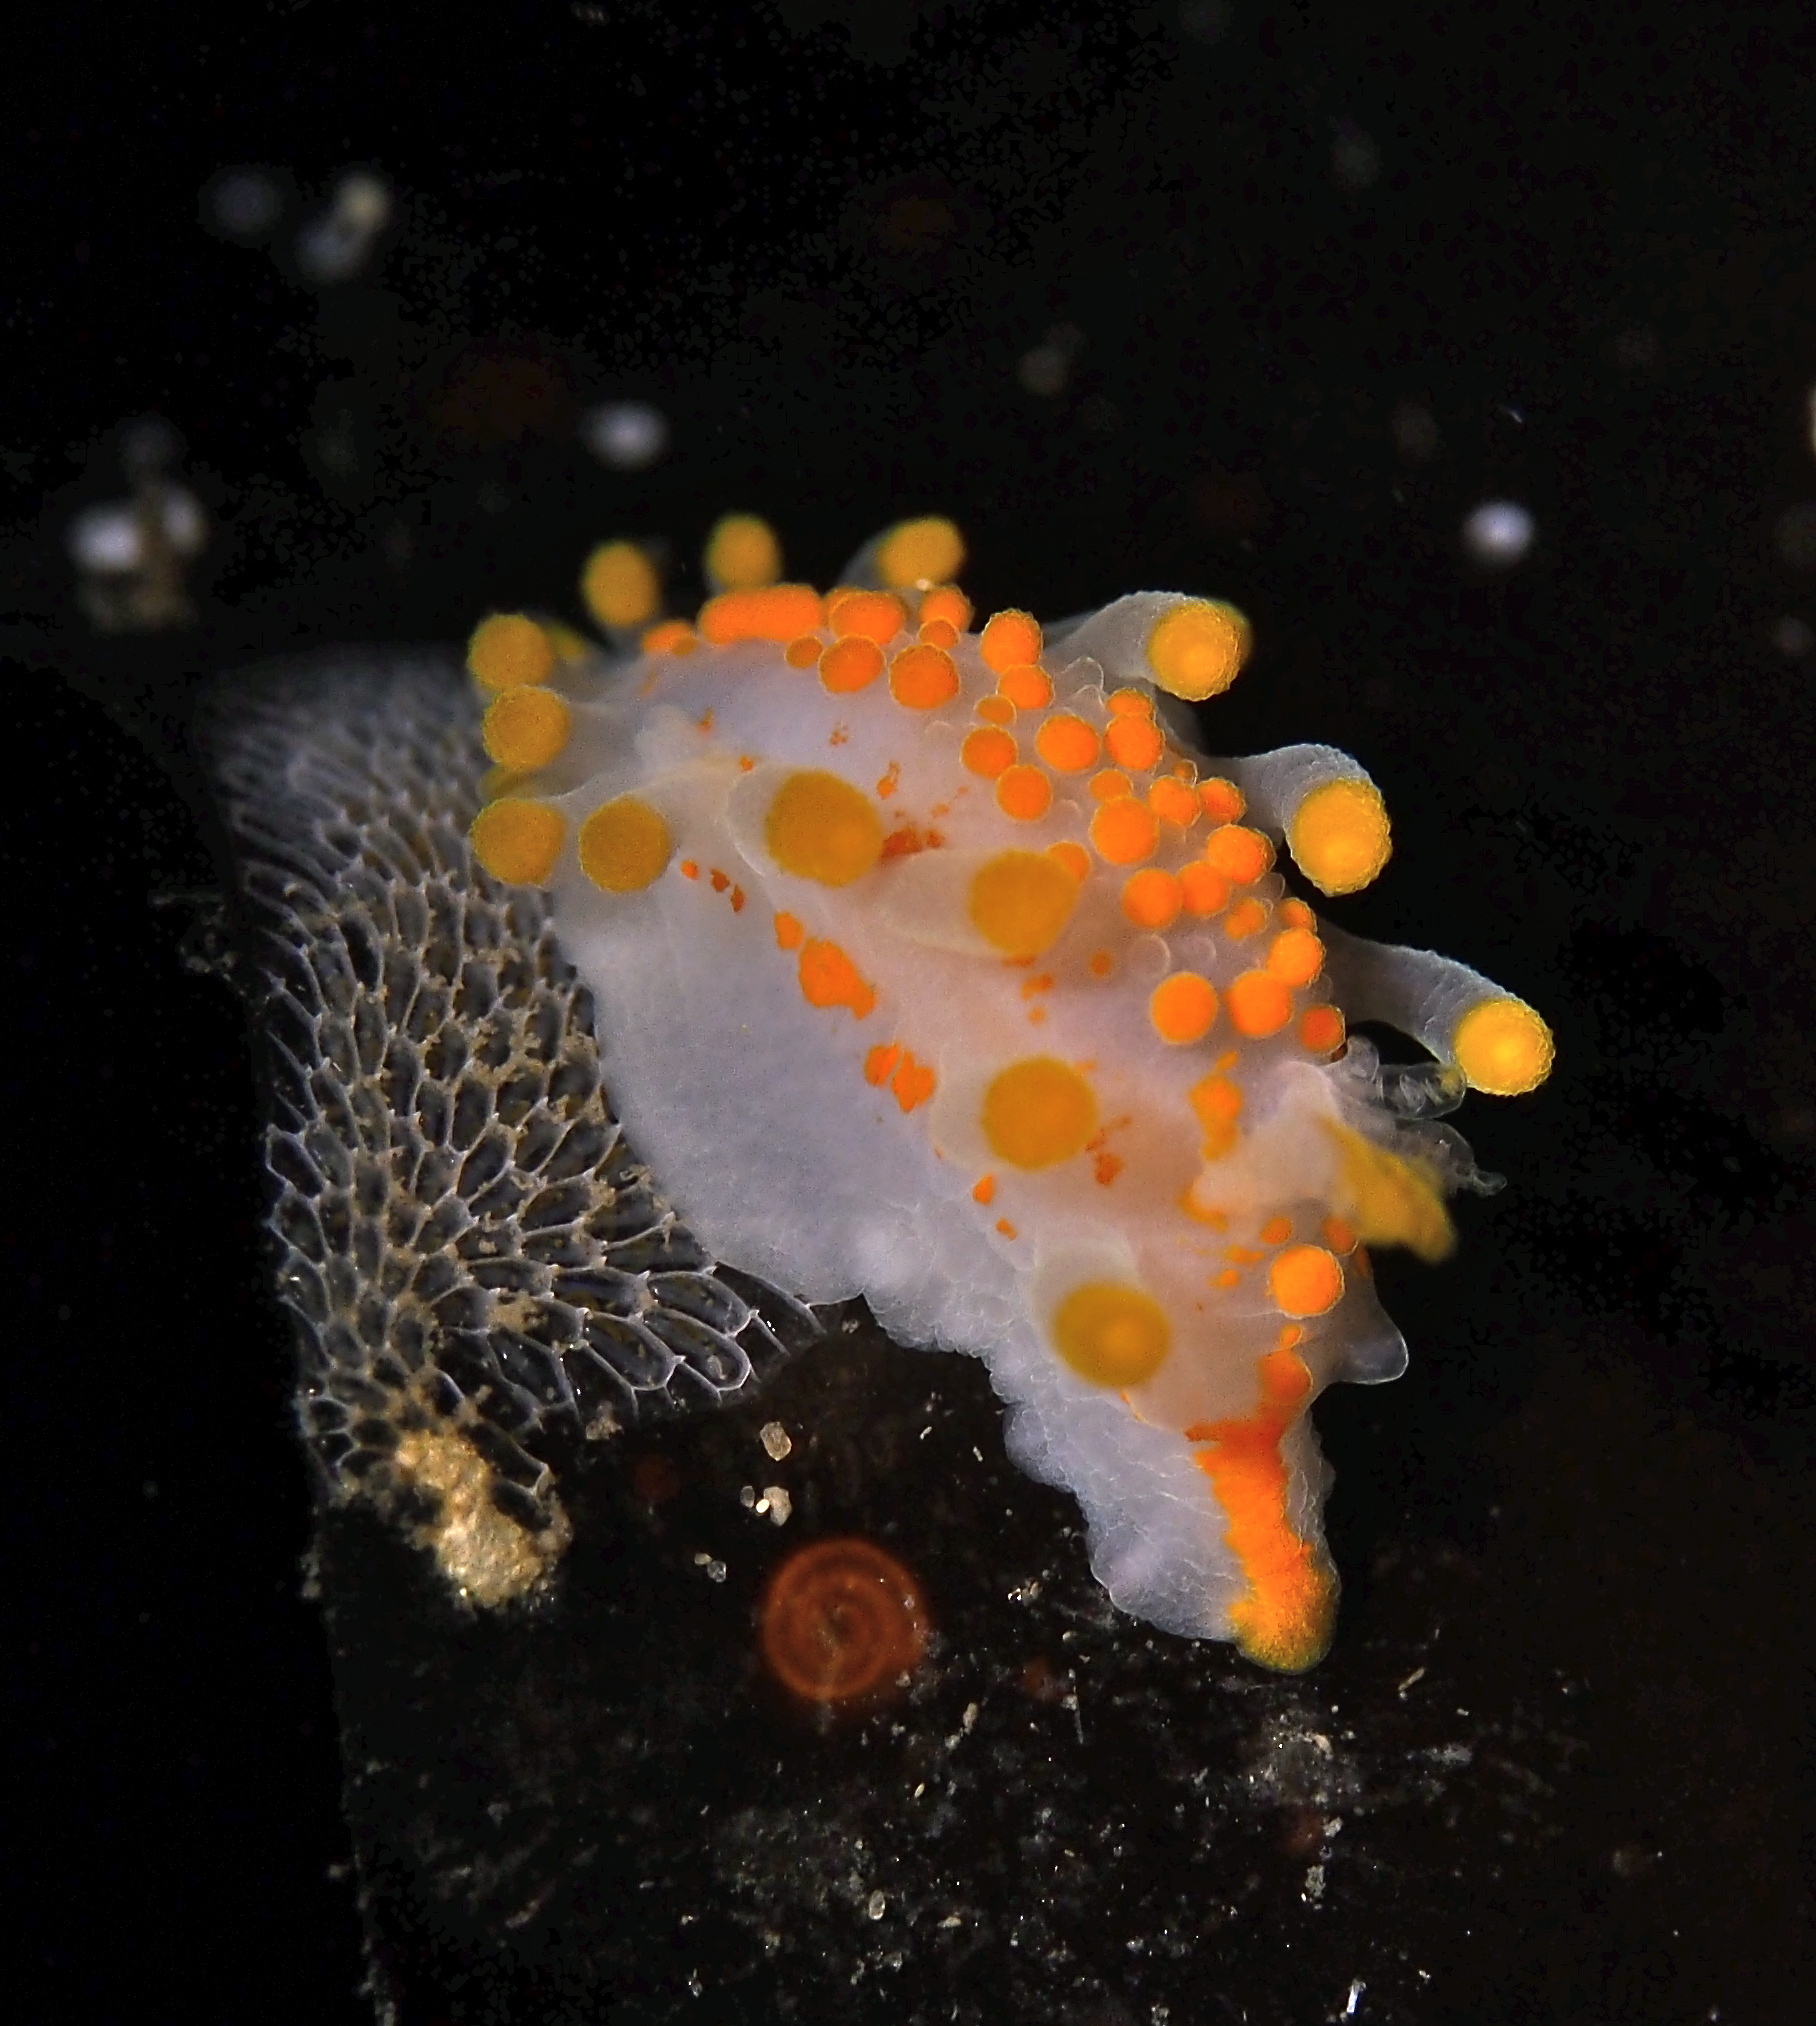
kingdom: Animalia
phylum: Mollusca
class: Gastropoda
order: Nudibranchia
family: Polyceridae
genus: Limacia
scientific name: Limacia clavigera
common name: Orange-clubbed sea slug
